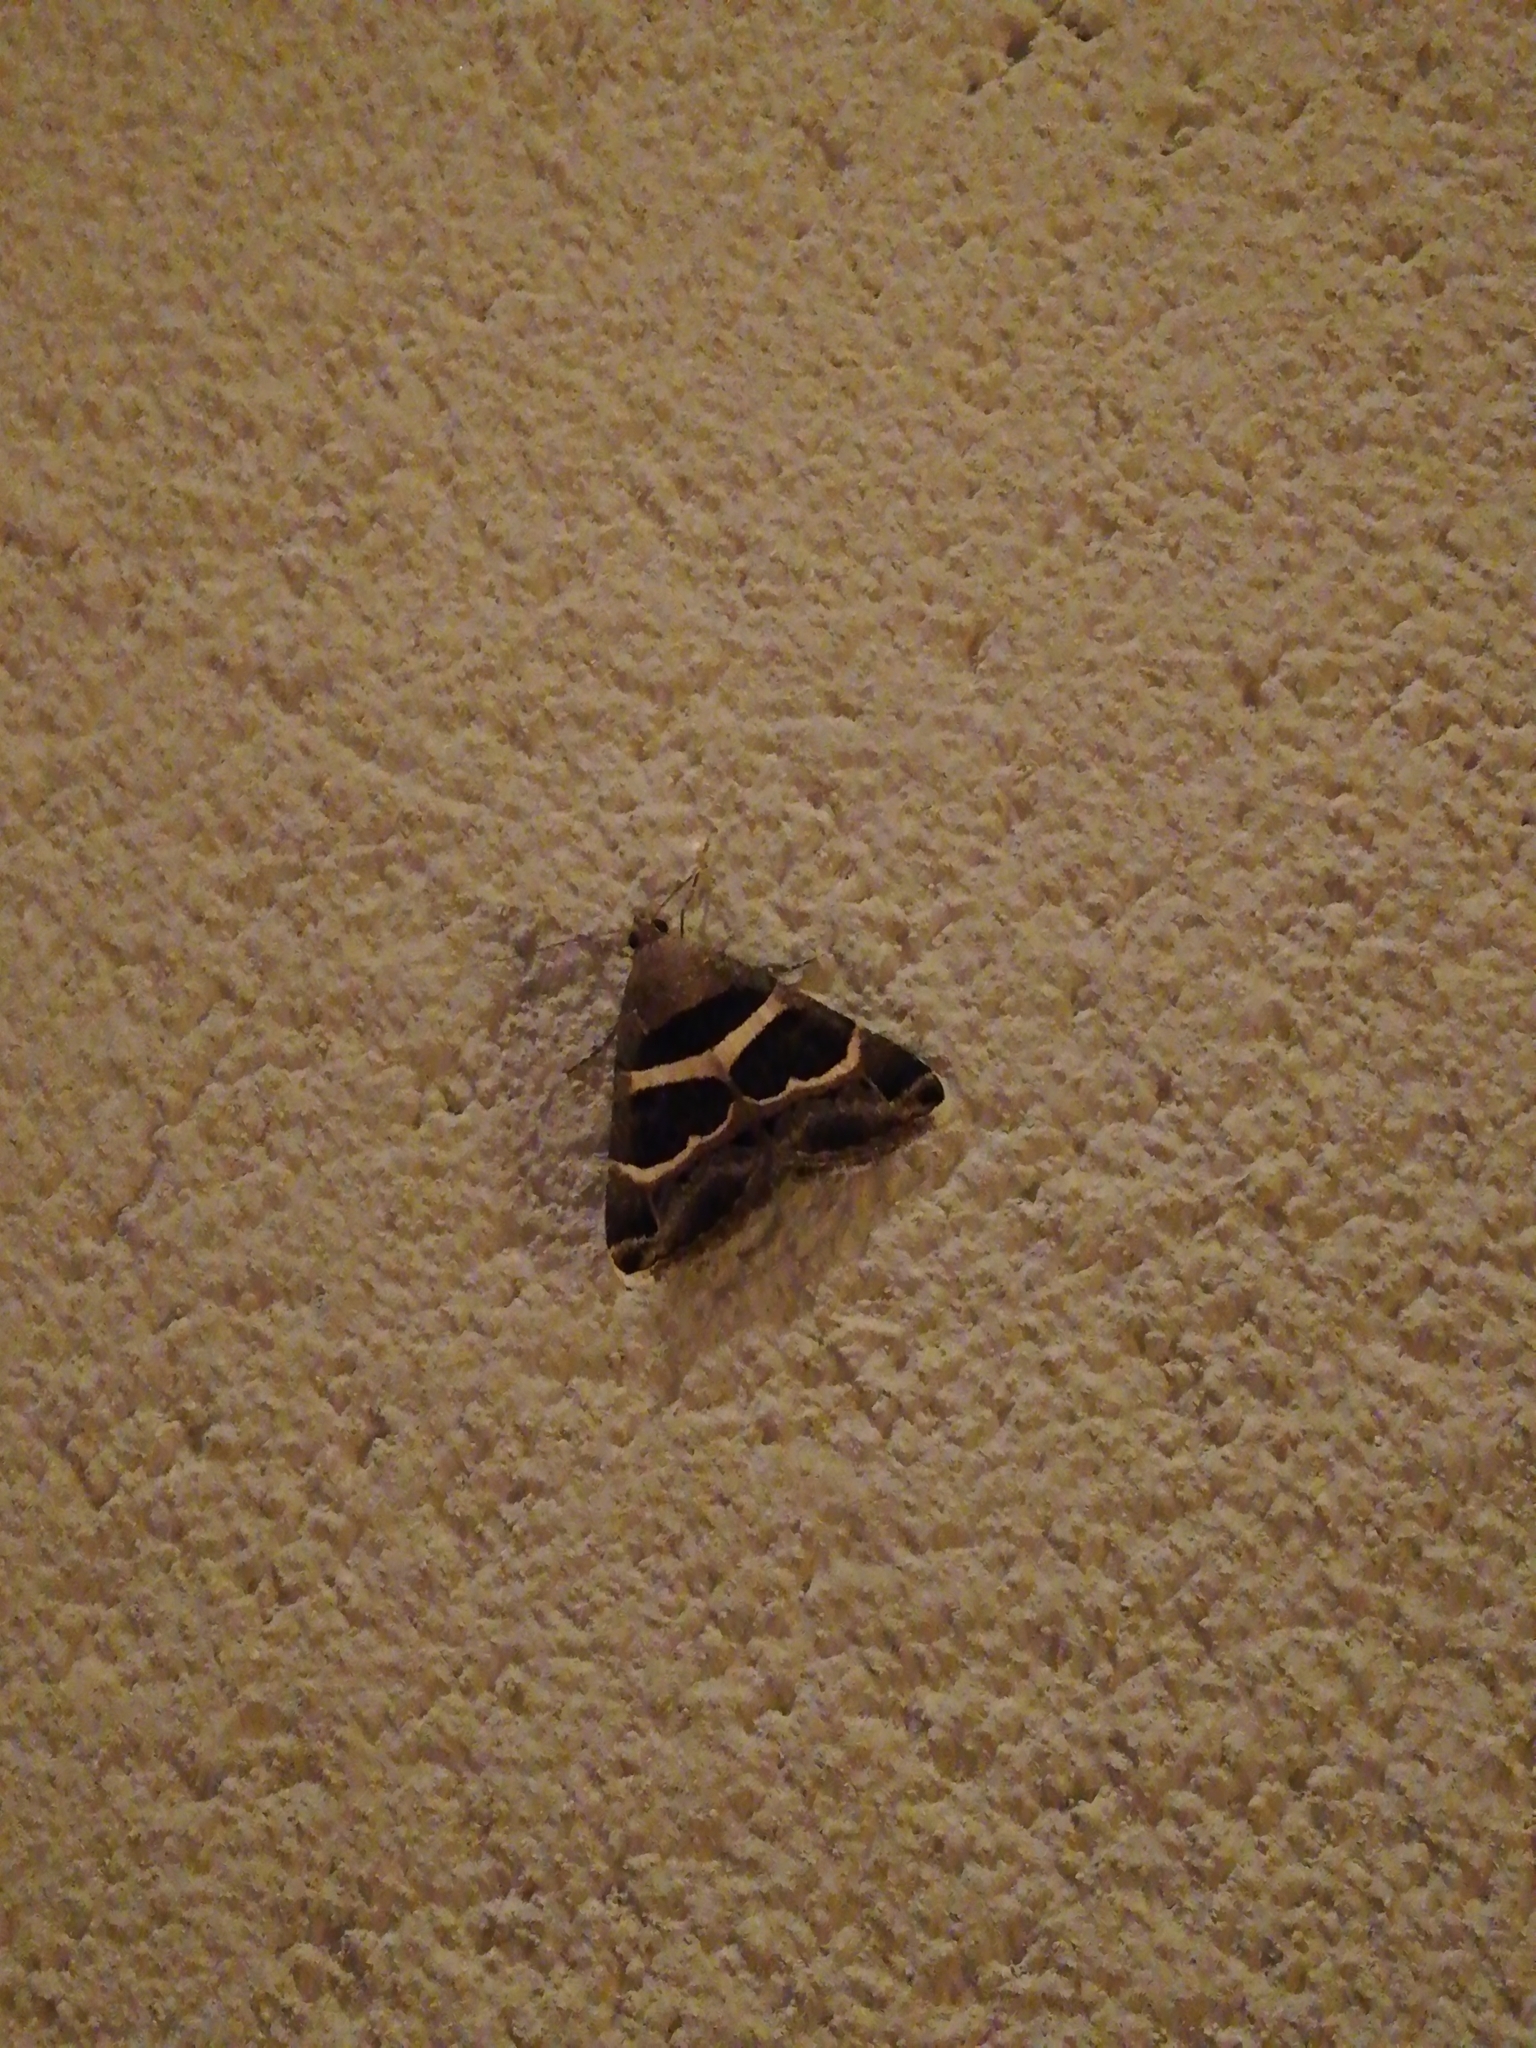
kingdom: Animalia
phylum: Arthropoda
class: Insecta
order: Lepidoptera
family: Erebidae
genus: Grammodes
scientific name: Grammodes stolida
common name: Geometrician
